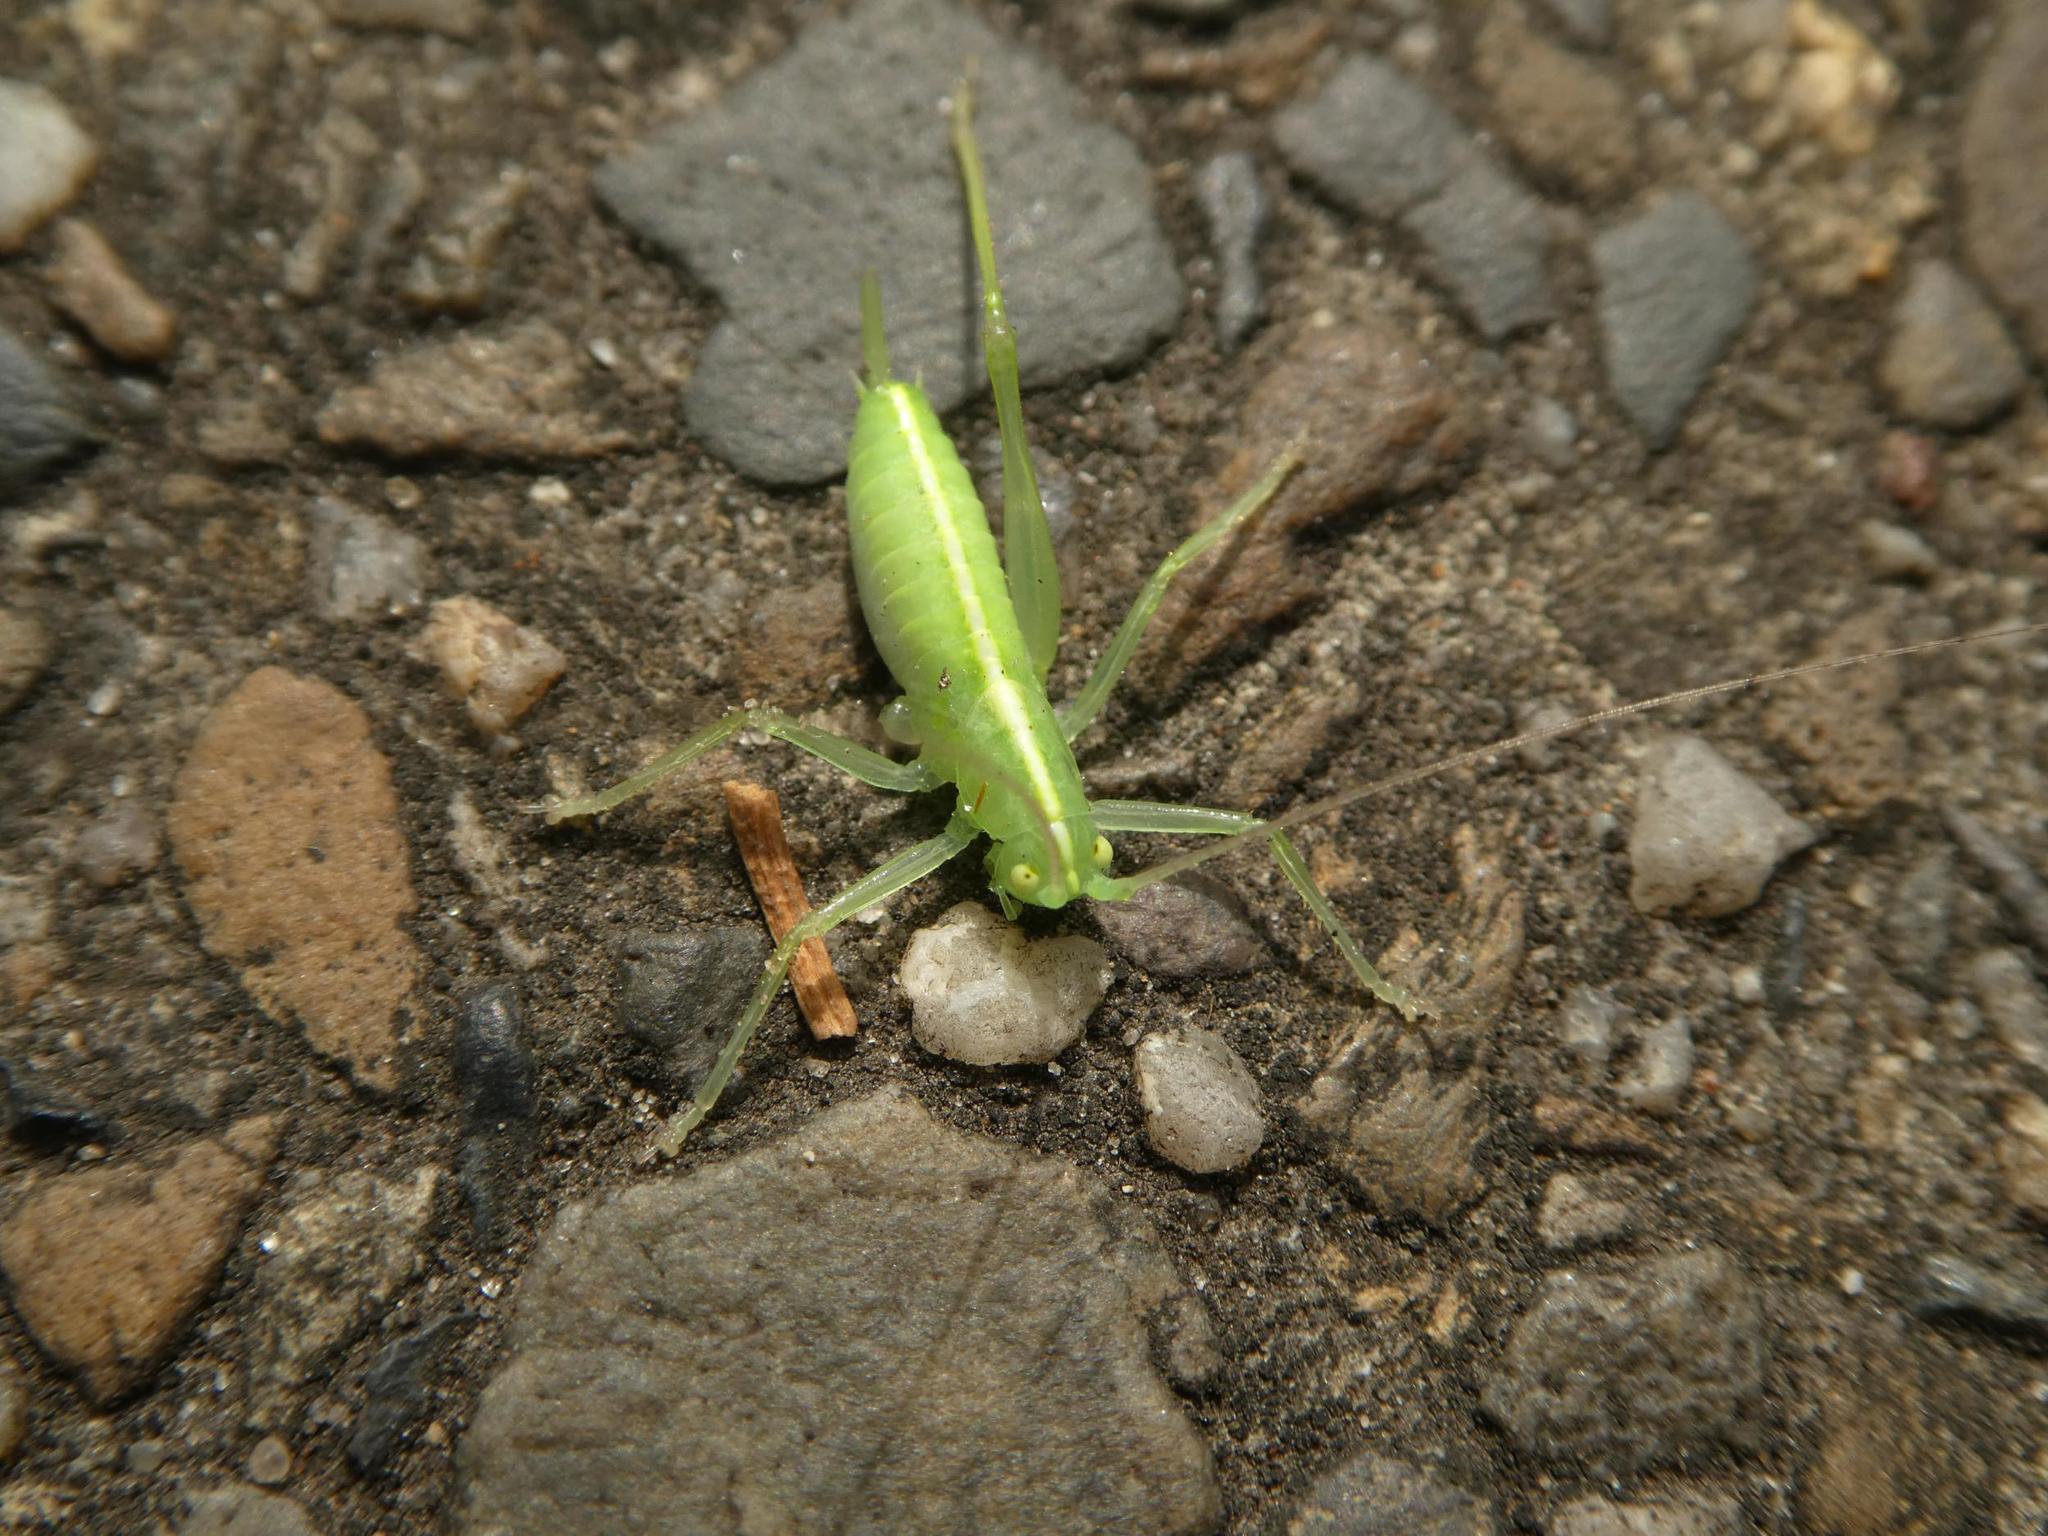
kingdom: Animalia
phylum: Arthropoda
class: Insecta
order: Orthoptera
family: Tettigoniidae
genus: Meconema
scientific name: Meconema meridionale
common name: Southern oak bush-cricket
